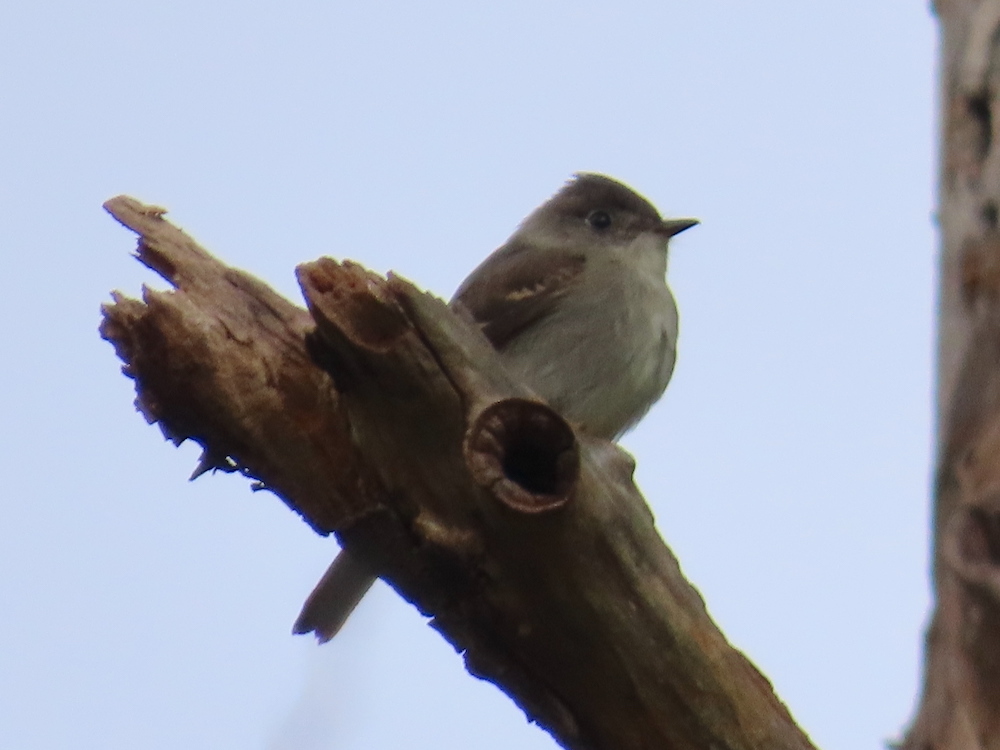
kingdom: Animalia
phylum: Chordata
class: Aves
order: Passeriformes
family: Tyrannidae
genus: Contopus
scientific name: Contopus virens
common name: Eastern wood-pewee
